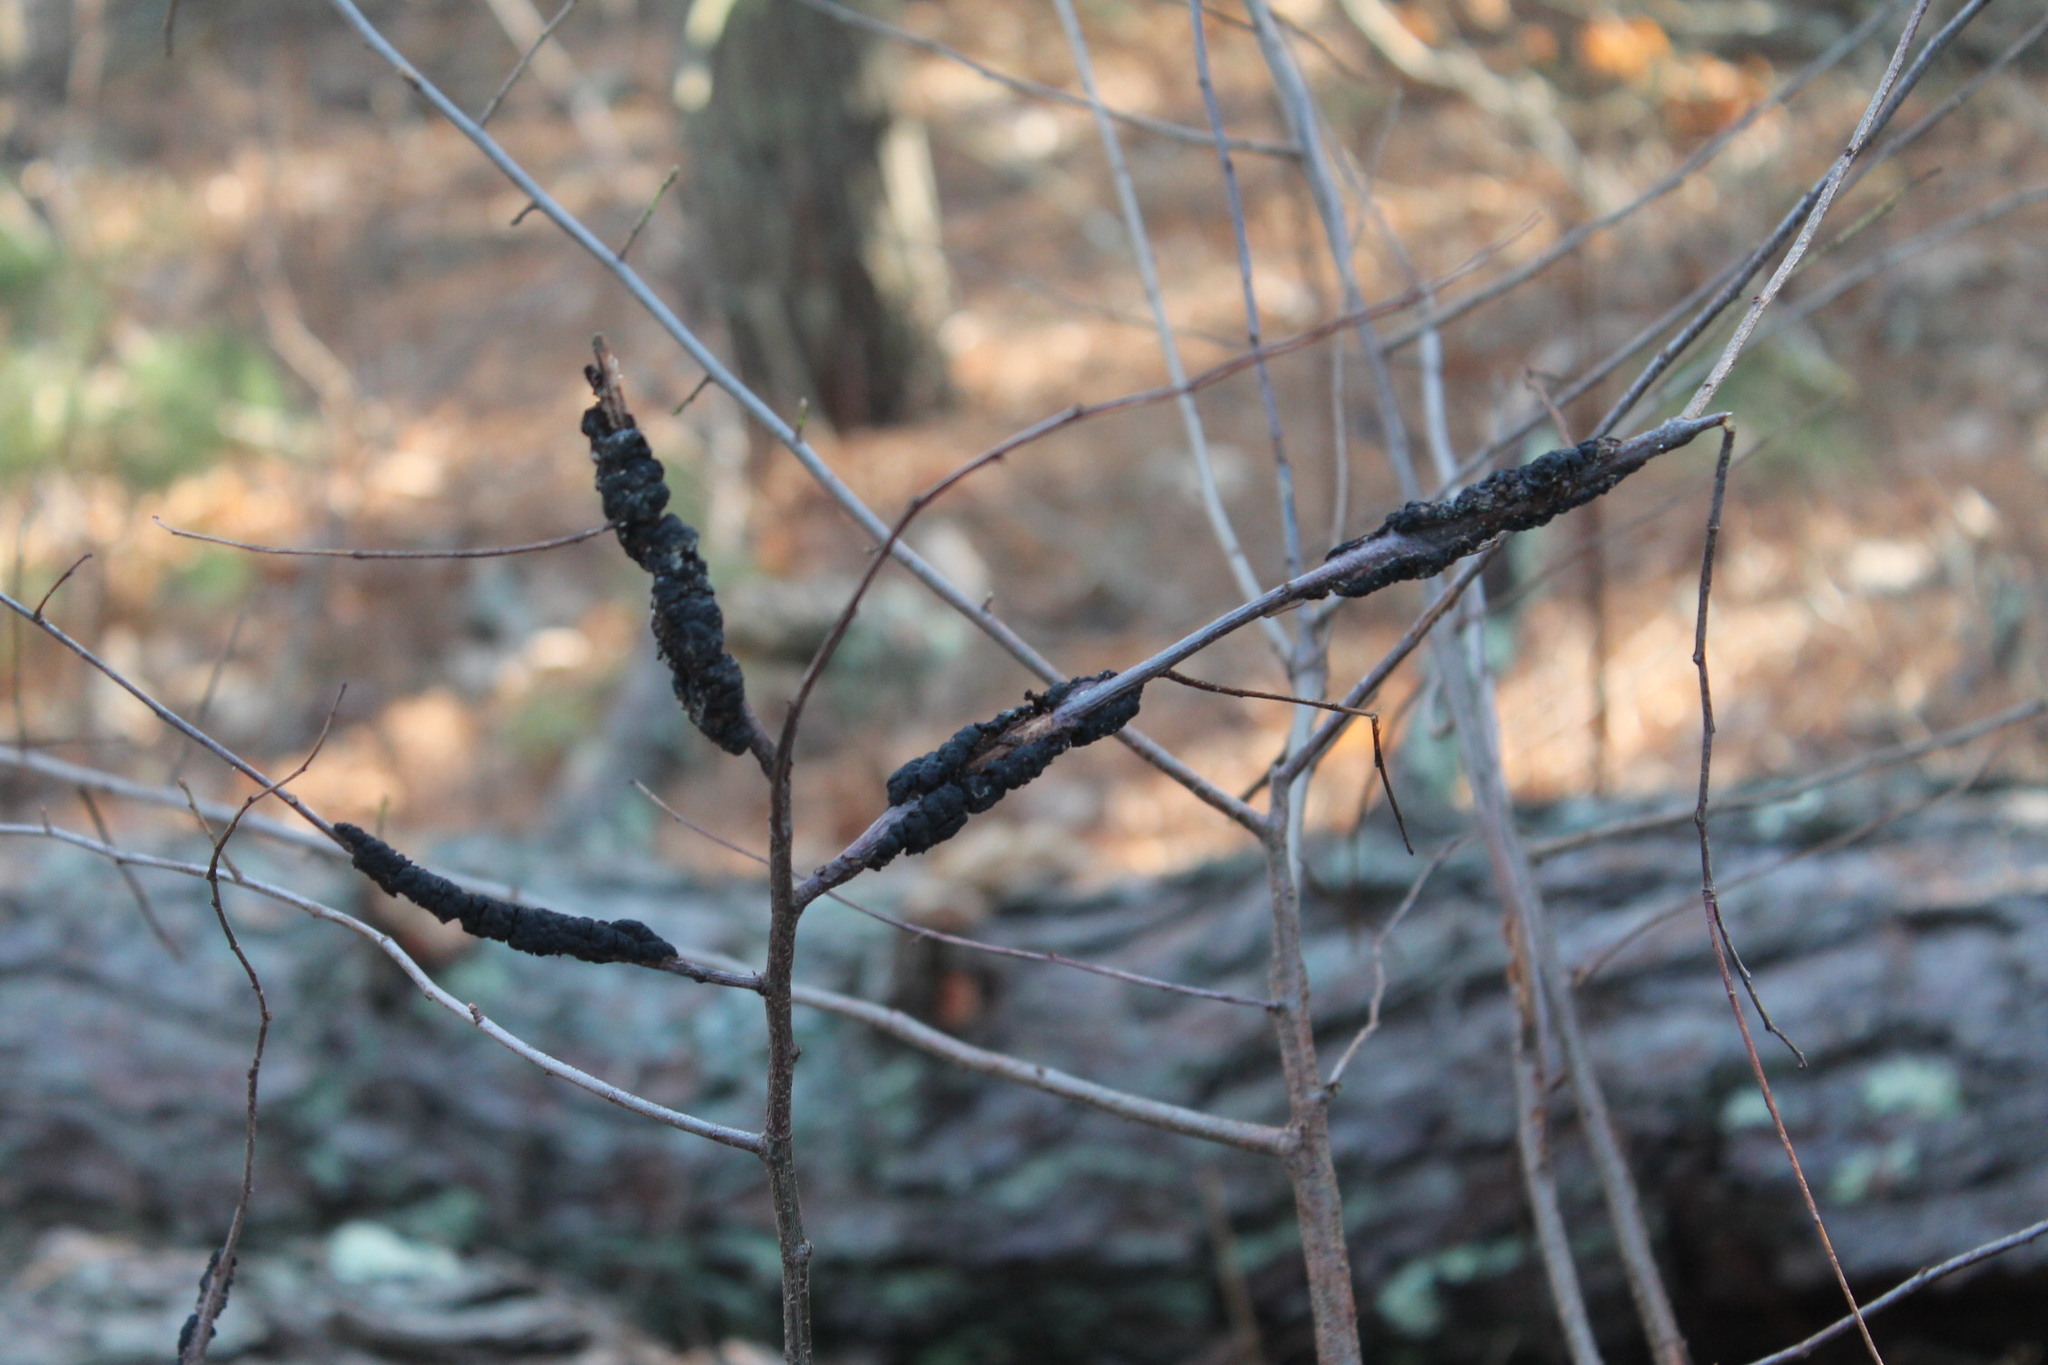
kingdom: Fungi
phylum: Ascomycota
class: Dothideomycetes
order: Venturiales
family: Venturiaceae
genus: Apiosporina
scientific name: Apiosporina morbosa
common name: Black knot
